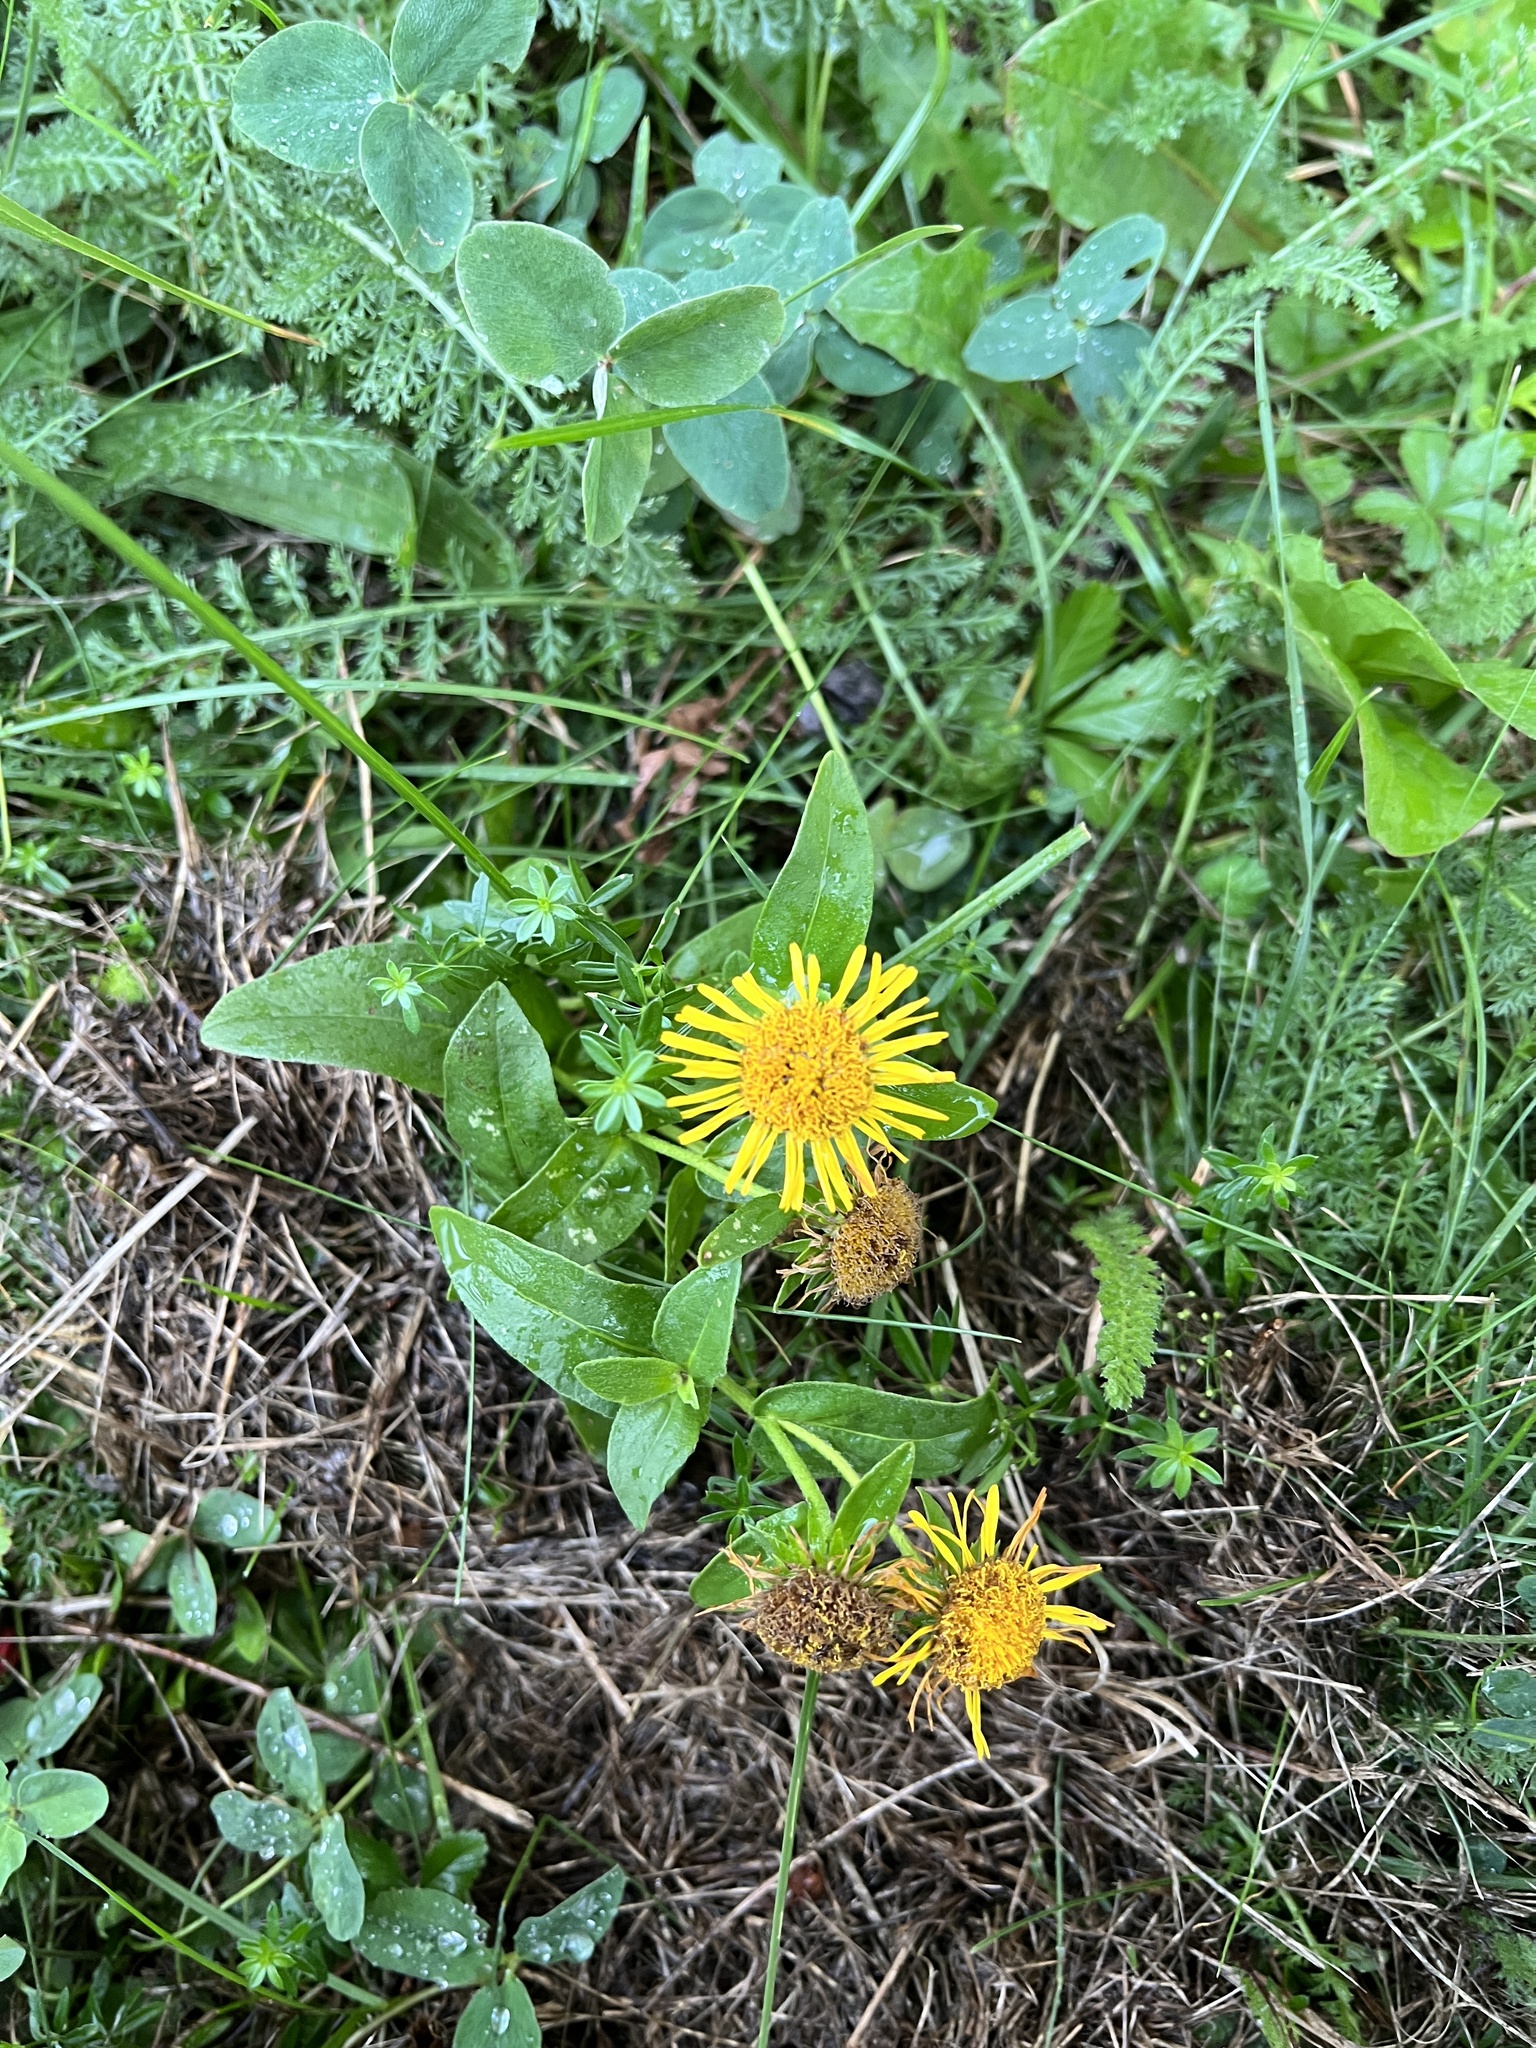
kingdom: Plantae
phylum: Tracheophyta
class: Magnoliopsida
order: Asterales
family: Asteraceae
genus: Pentanema
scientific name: Pentanema britannicum
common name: British elecampane
